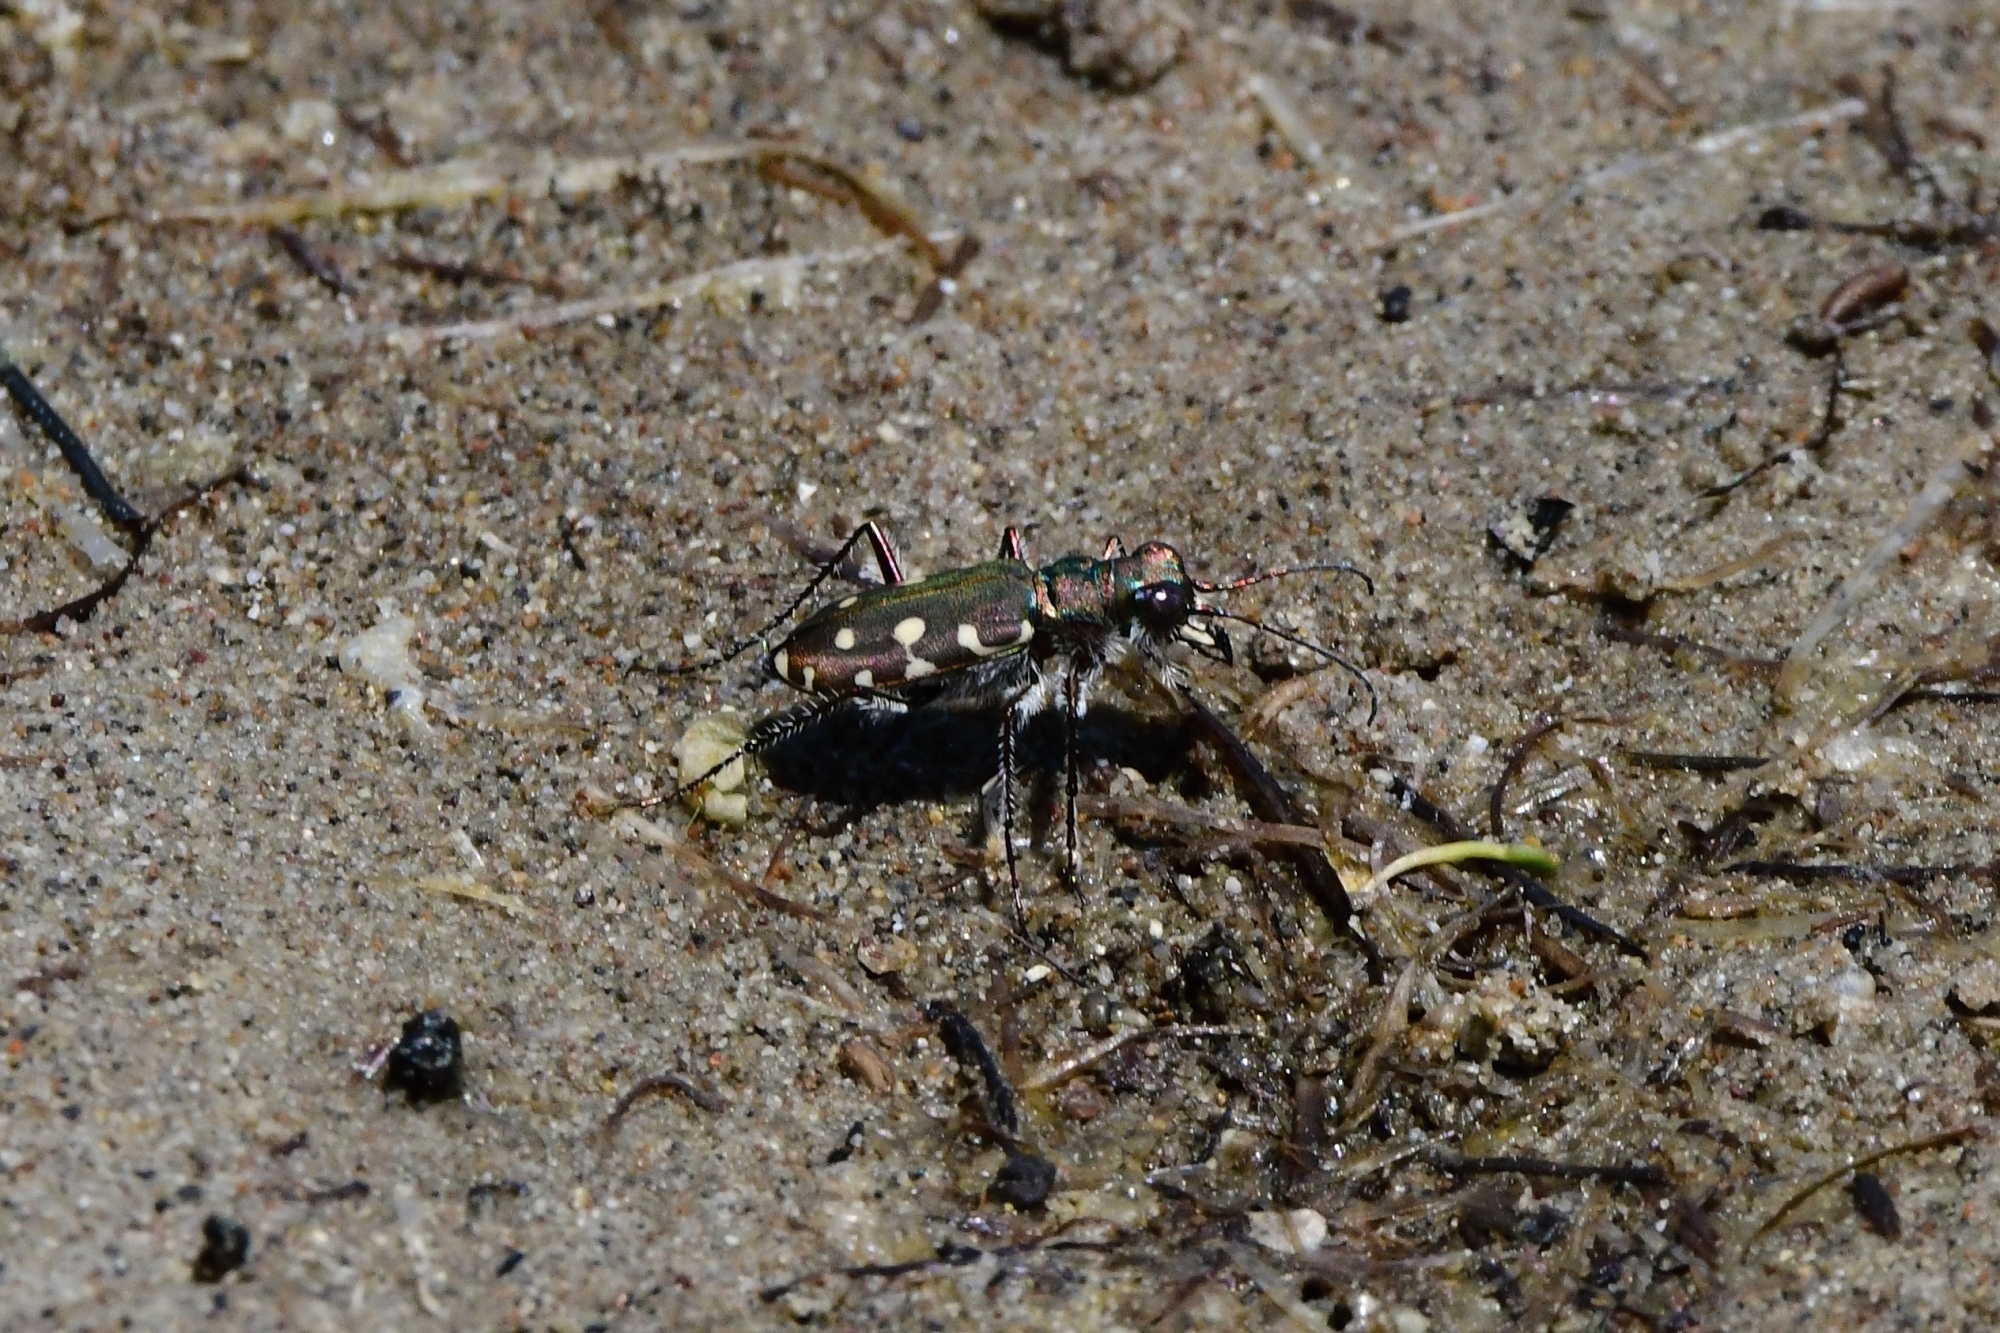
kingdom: Animalia
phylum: Arthropoda
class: Insecta
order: Coleoptera
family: Carabidae
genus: Cicindela
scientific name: Cicindela littoralis
